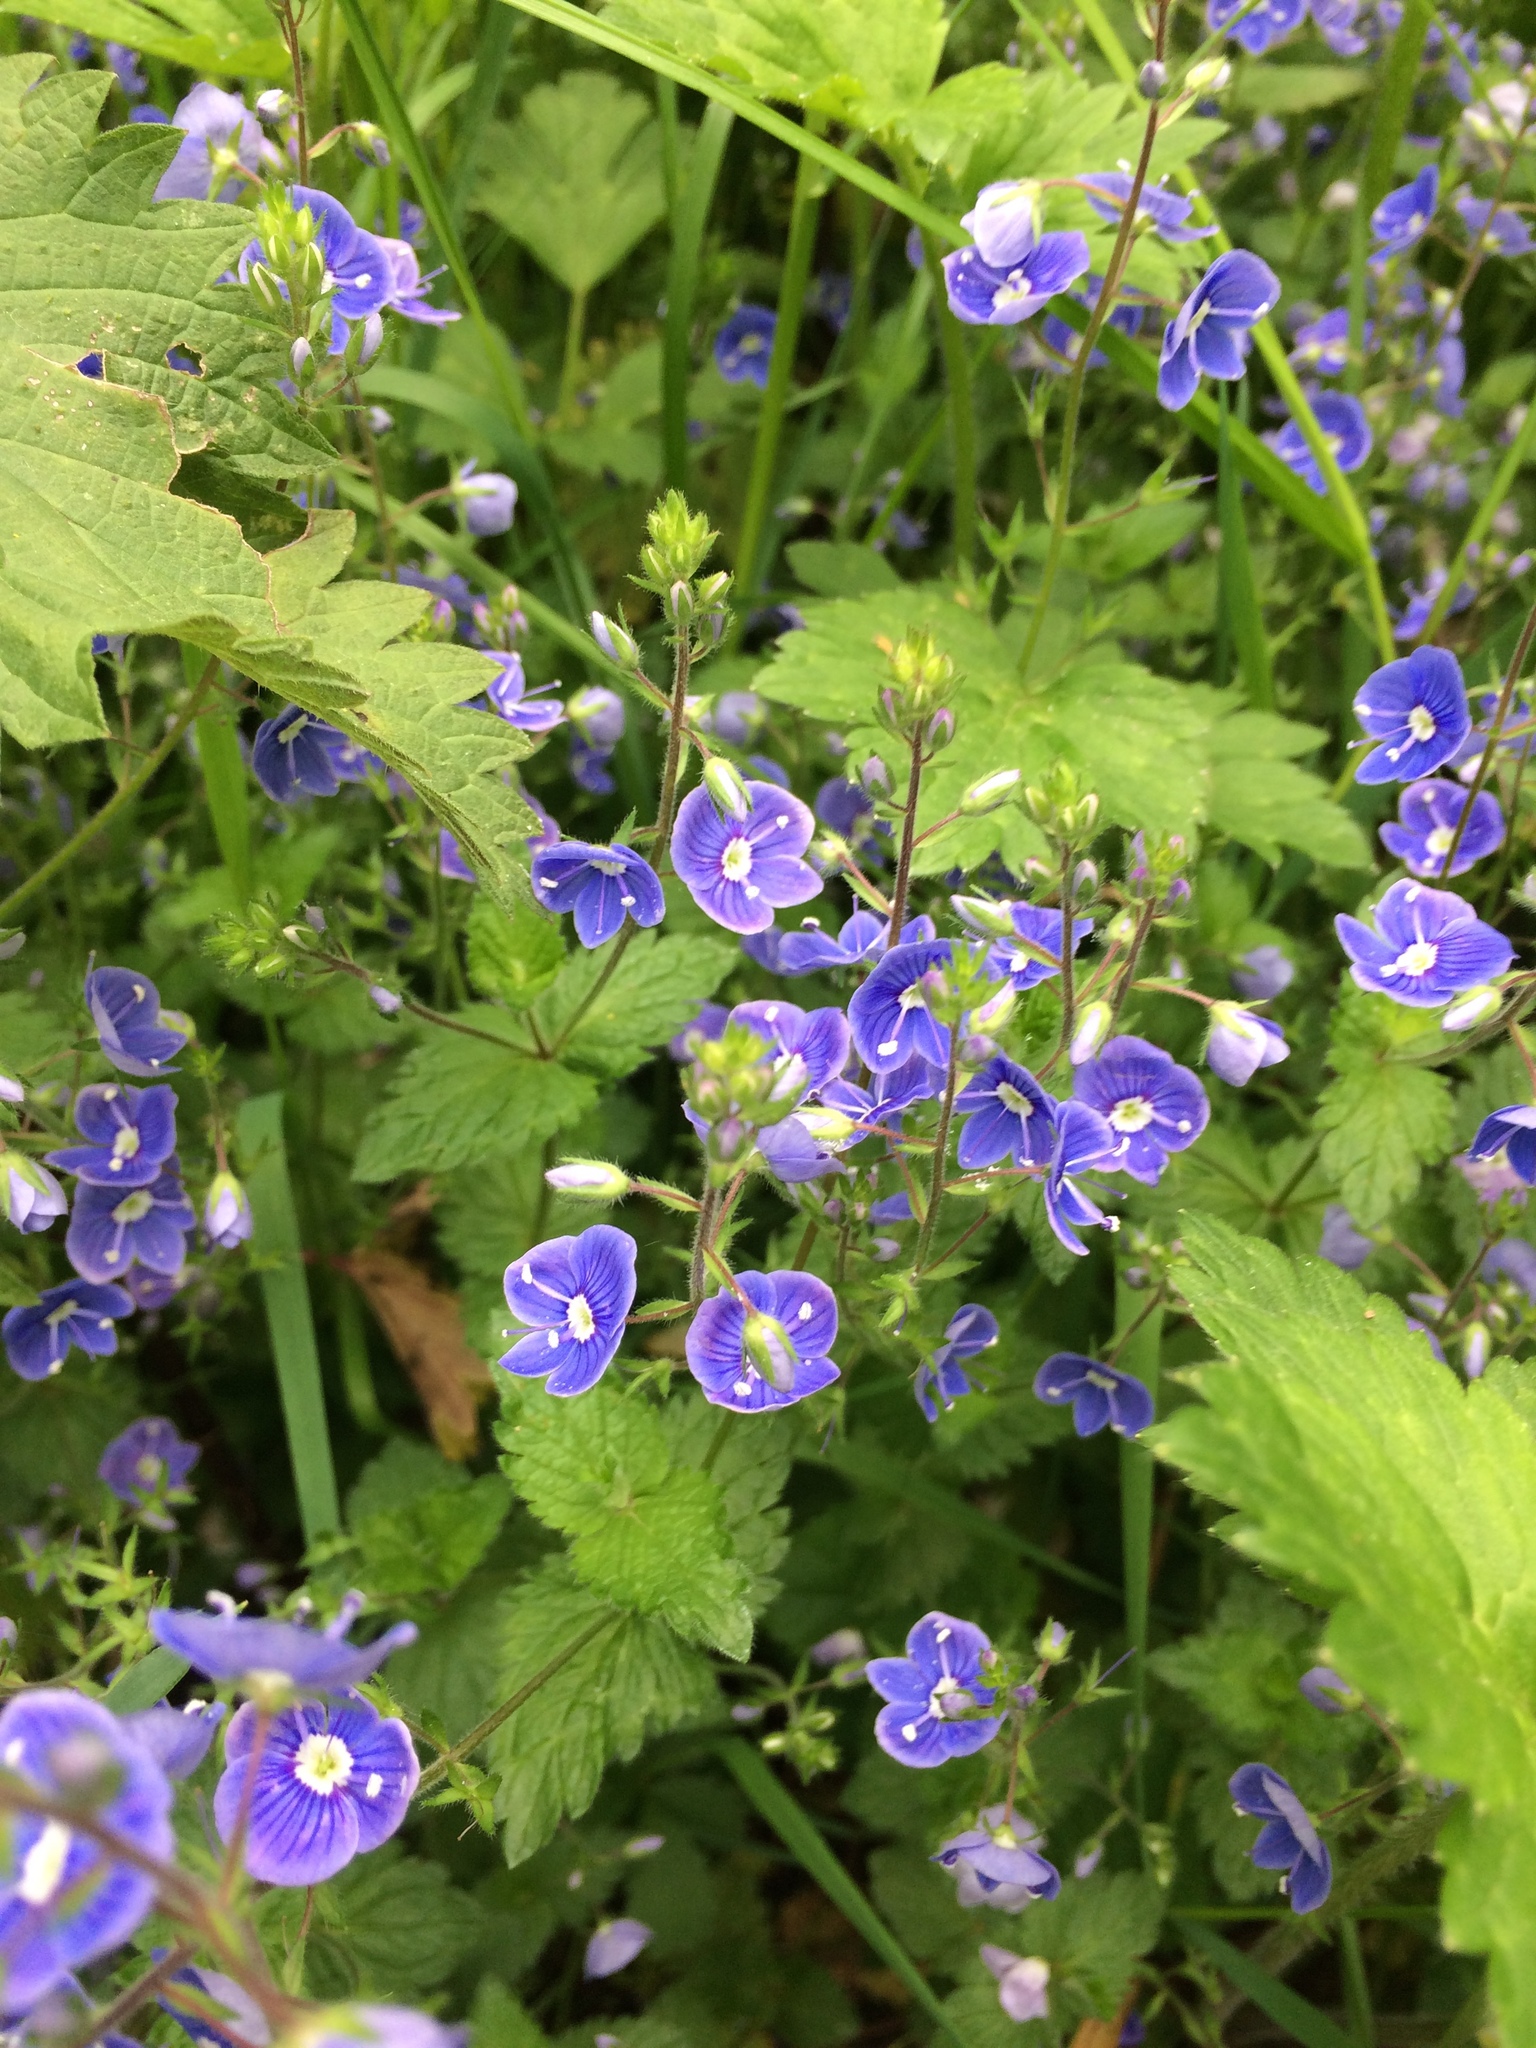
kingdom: Plantae
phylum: Tracheophyta
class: Magnoliopsida
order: Lamiales
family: Plantaginaceae
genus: Veronica
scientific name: Veronica chamaedrys
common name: Germander speedwell
